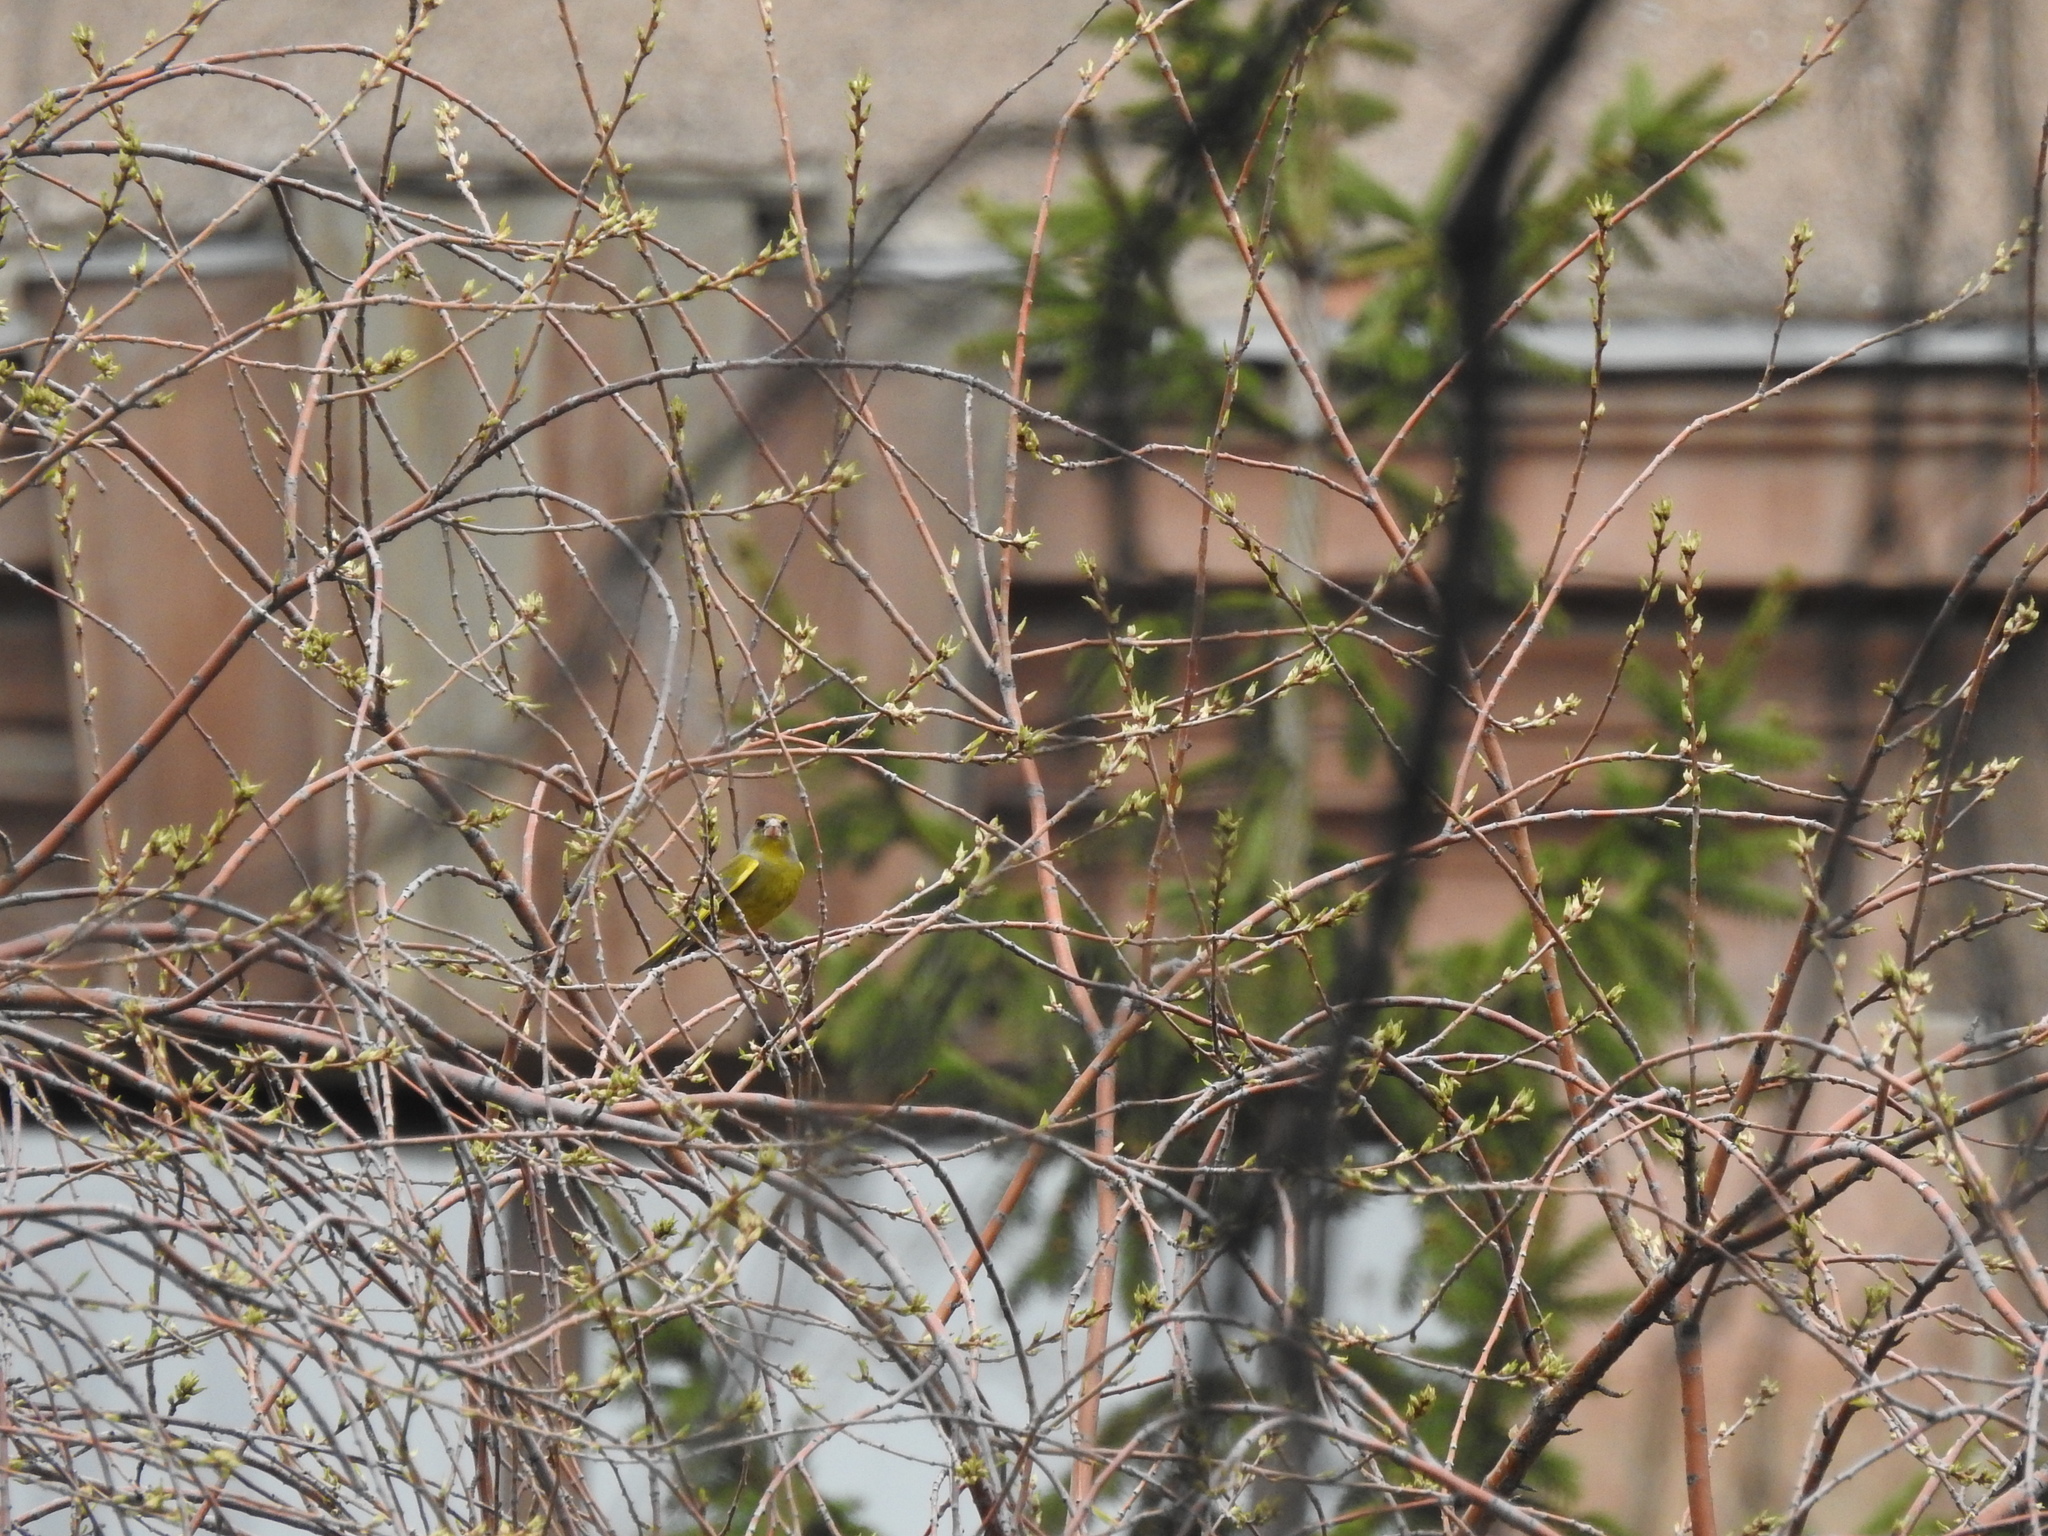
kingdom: Plantae
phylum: Tracheophyta
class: Liliopsida
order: Poales
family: Poaceae
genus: Chloris
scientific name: Chloris chloris
